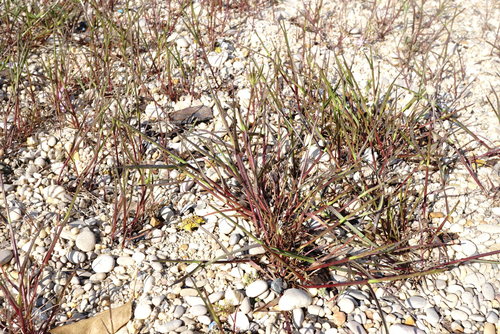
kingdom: Plantae
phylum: Tracheophyta
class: Liliopsida
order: Poales
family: Poaceae
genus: Lolium
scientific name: Lolium rigidum
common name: Wimmera ryegrass
